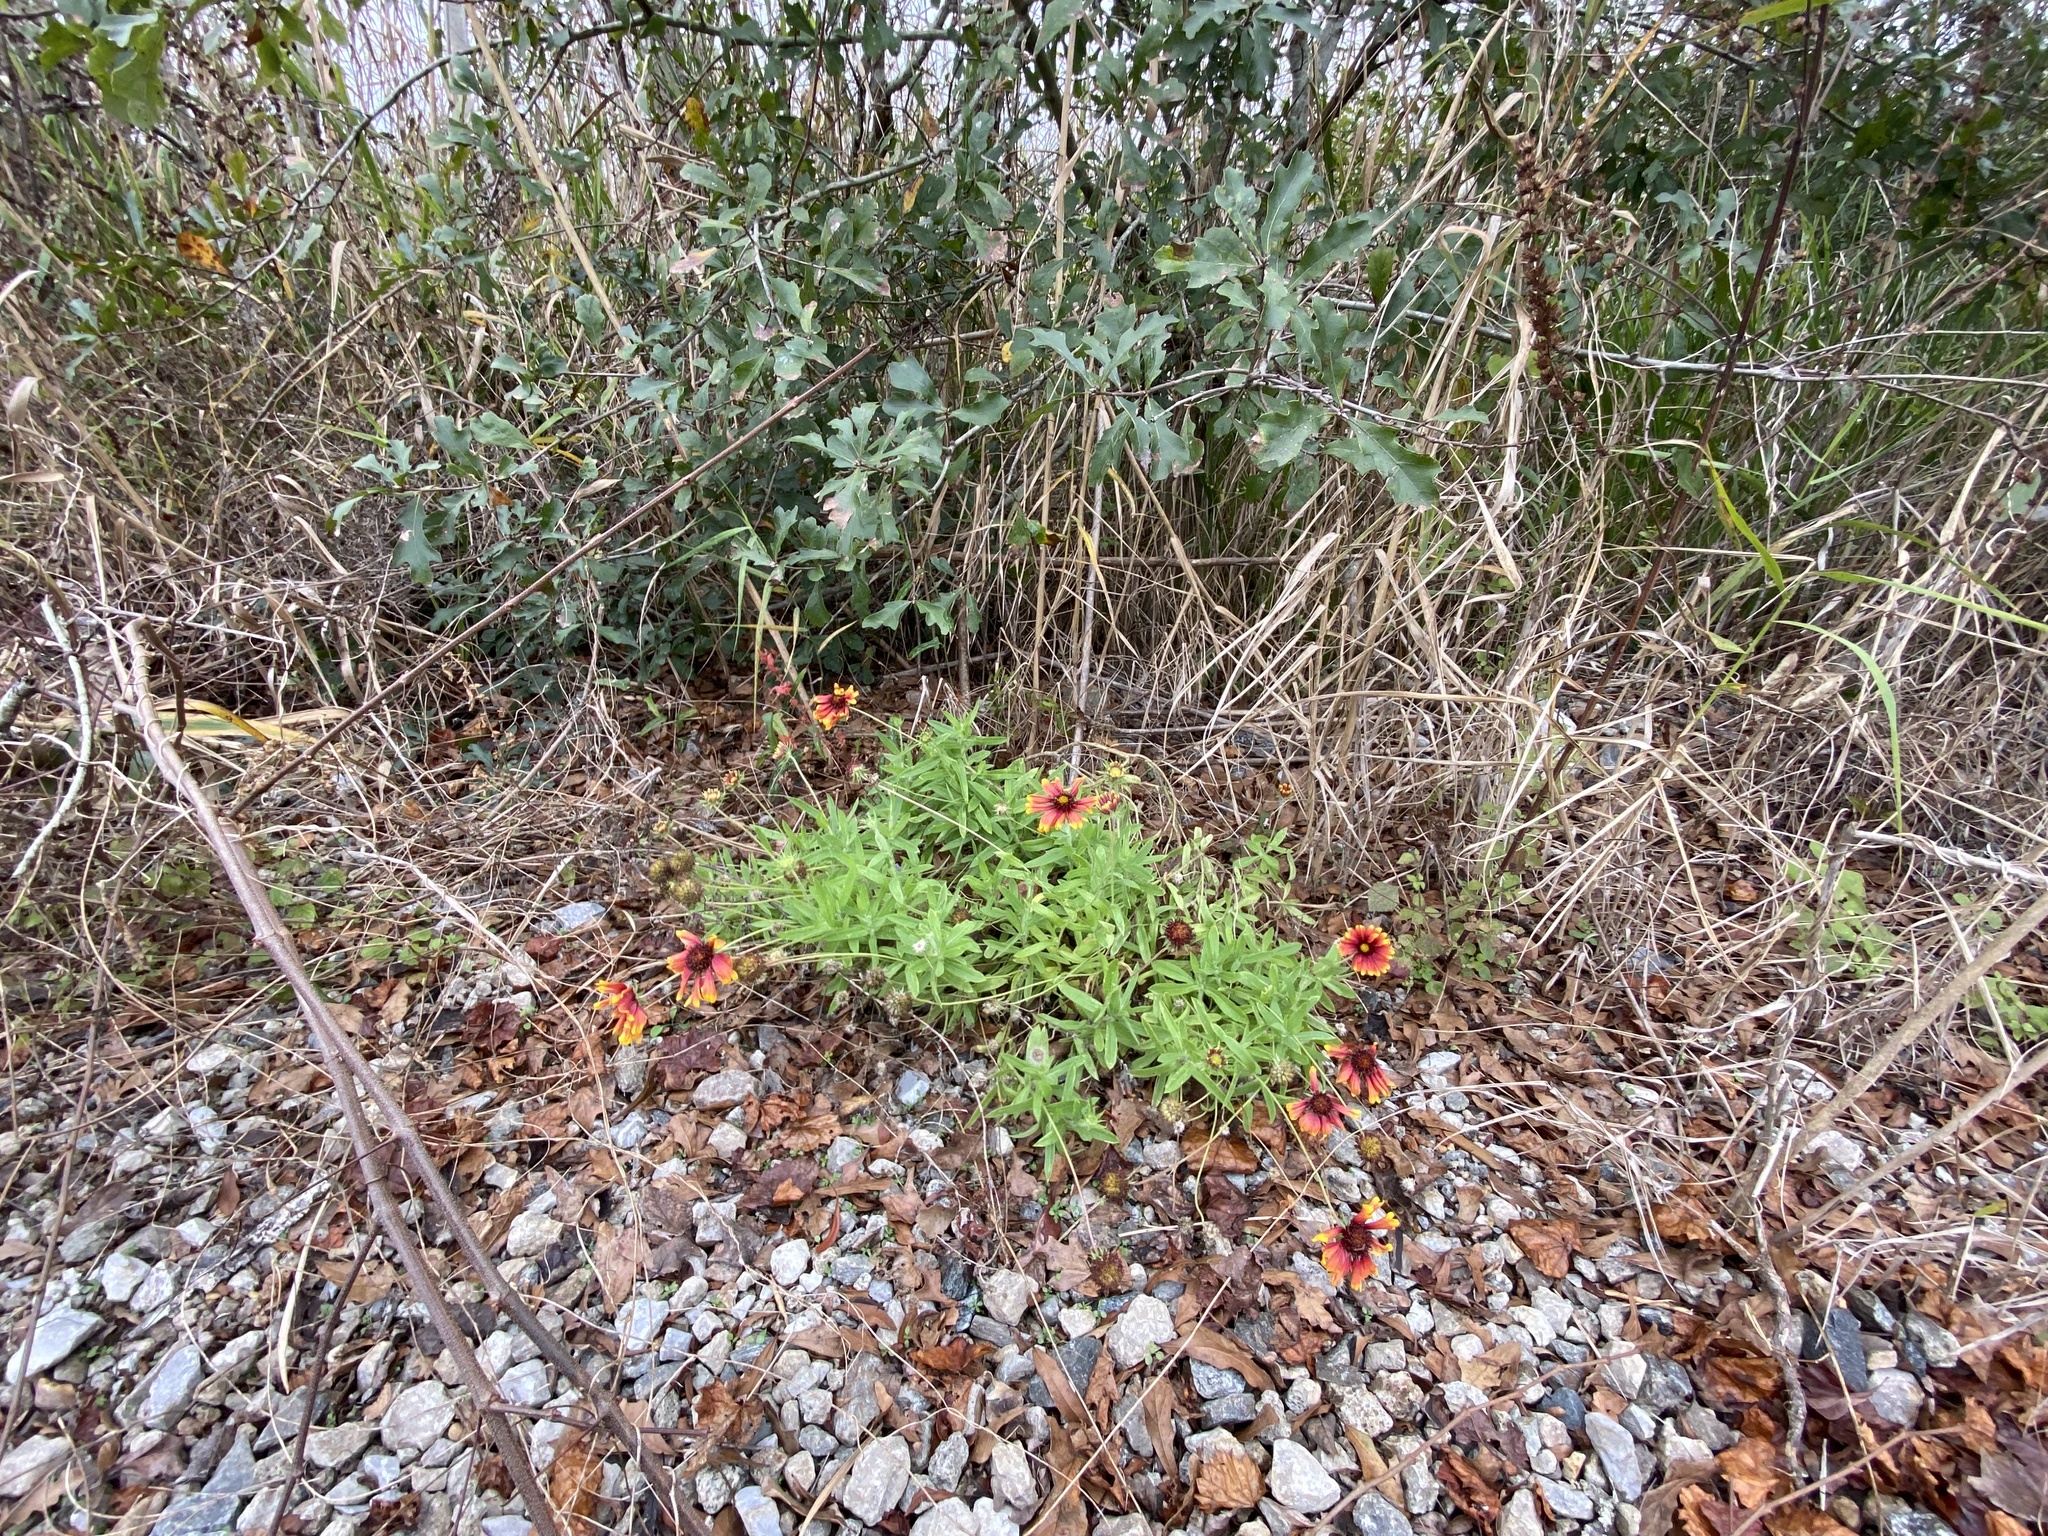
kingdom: Plantae
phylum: Tracheophyta
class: Magnoliopsida
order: Asterales
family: Asteraceae
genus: Gaillardia
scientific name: Gaillardia pulchella
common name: Firewheel
